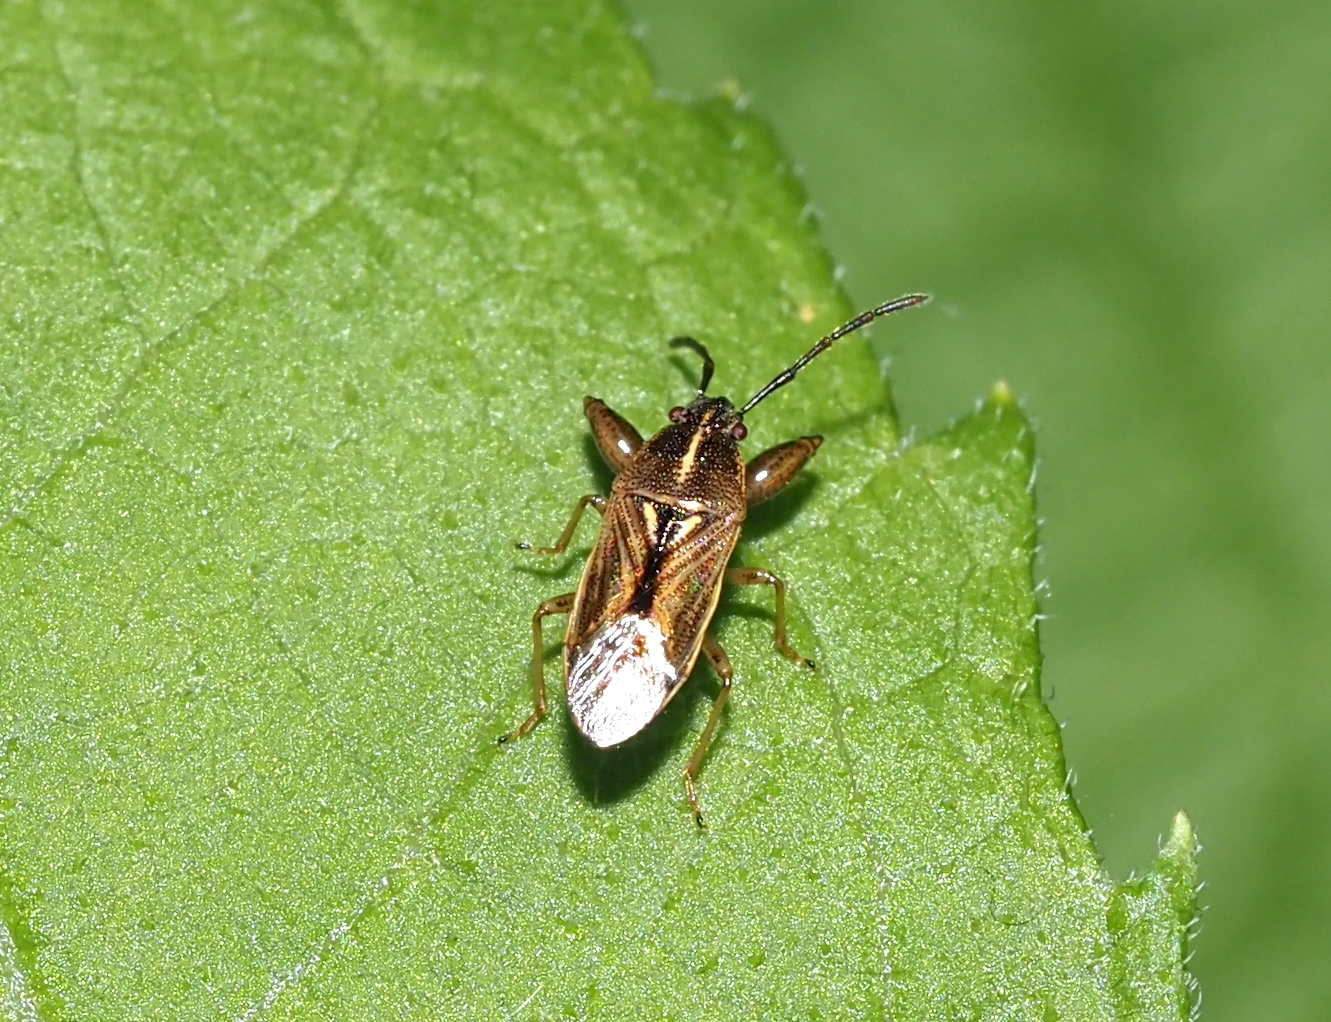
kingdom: Animalia
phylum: Arthropoda
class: Insecta
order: Hemiptera
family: Pachygronthidae
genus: Oedancala
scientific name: Oedancala dorsalis
